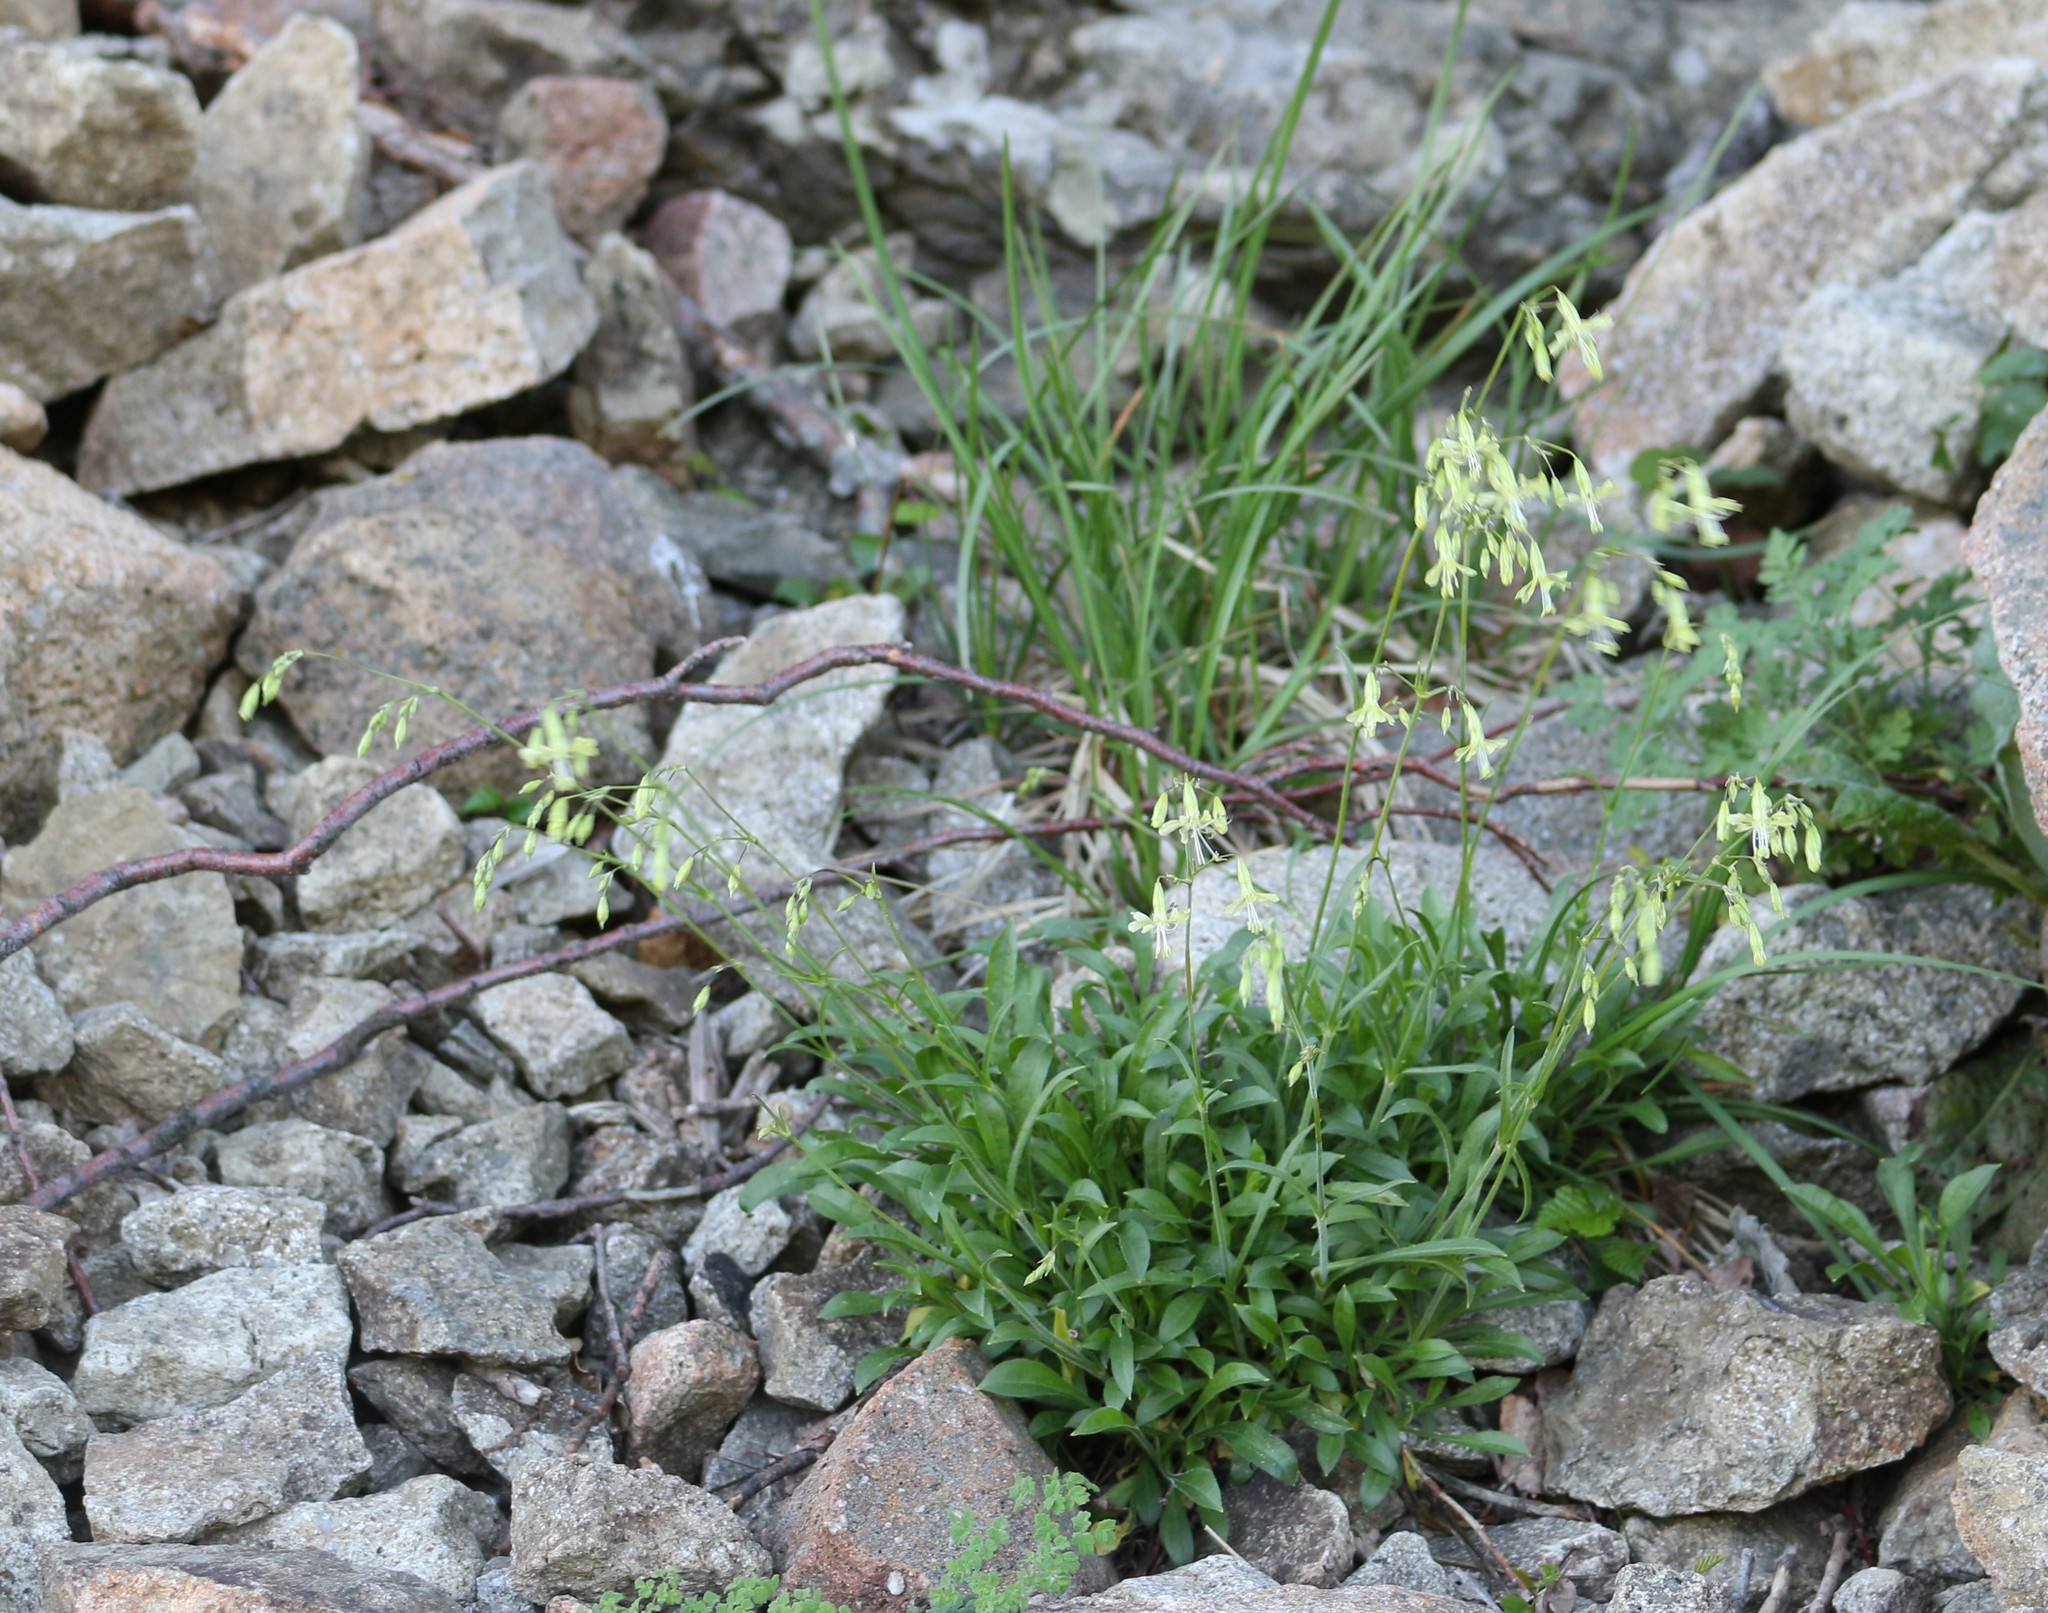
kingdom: Plantae
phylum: Tracheophyta
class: Magnoliopsida
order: Caryophyllales
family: Caryophyllaceae
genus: Silene
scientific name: Silene saxatilis
